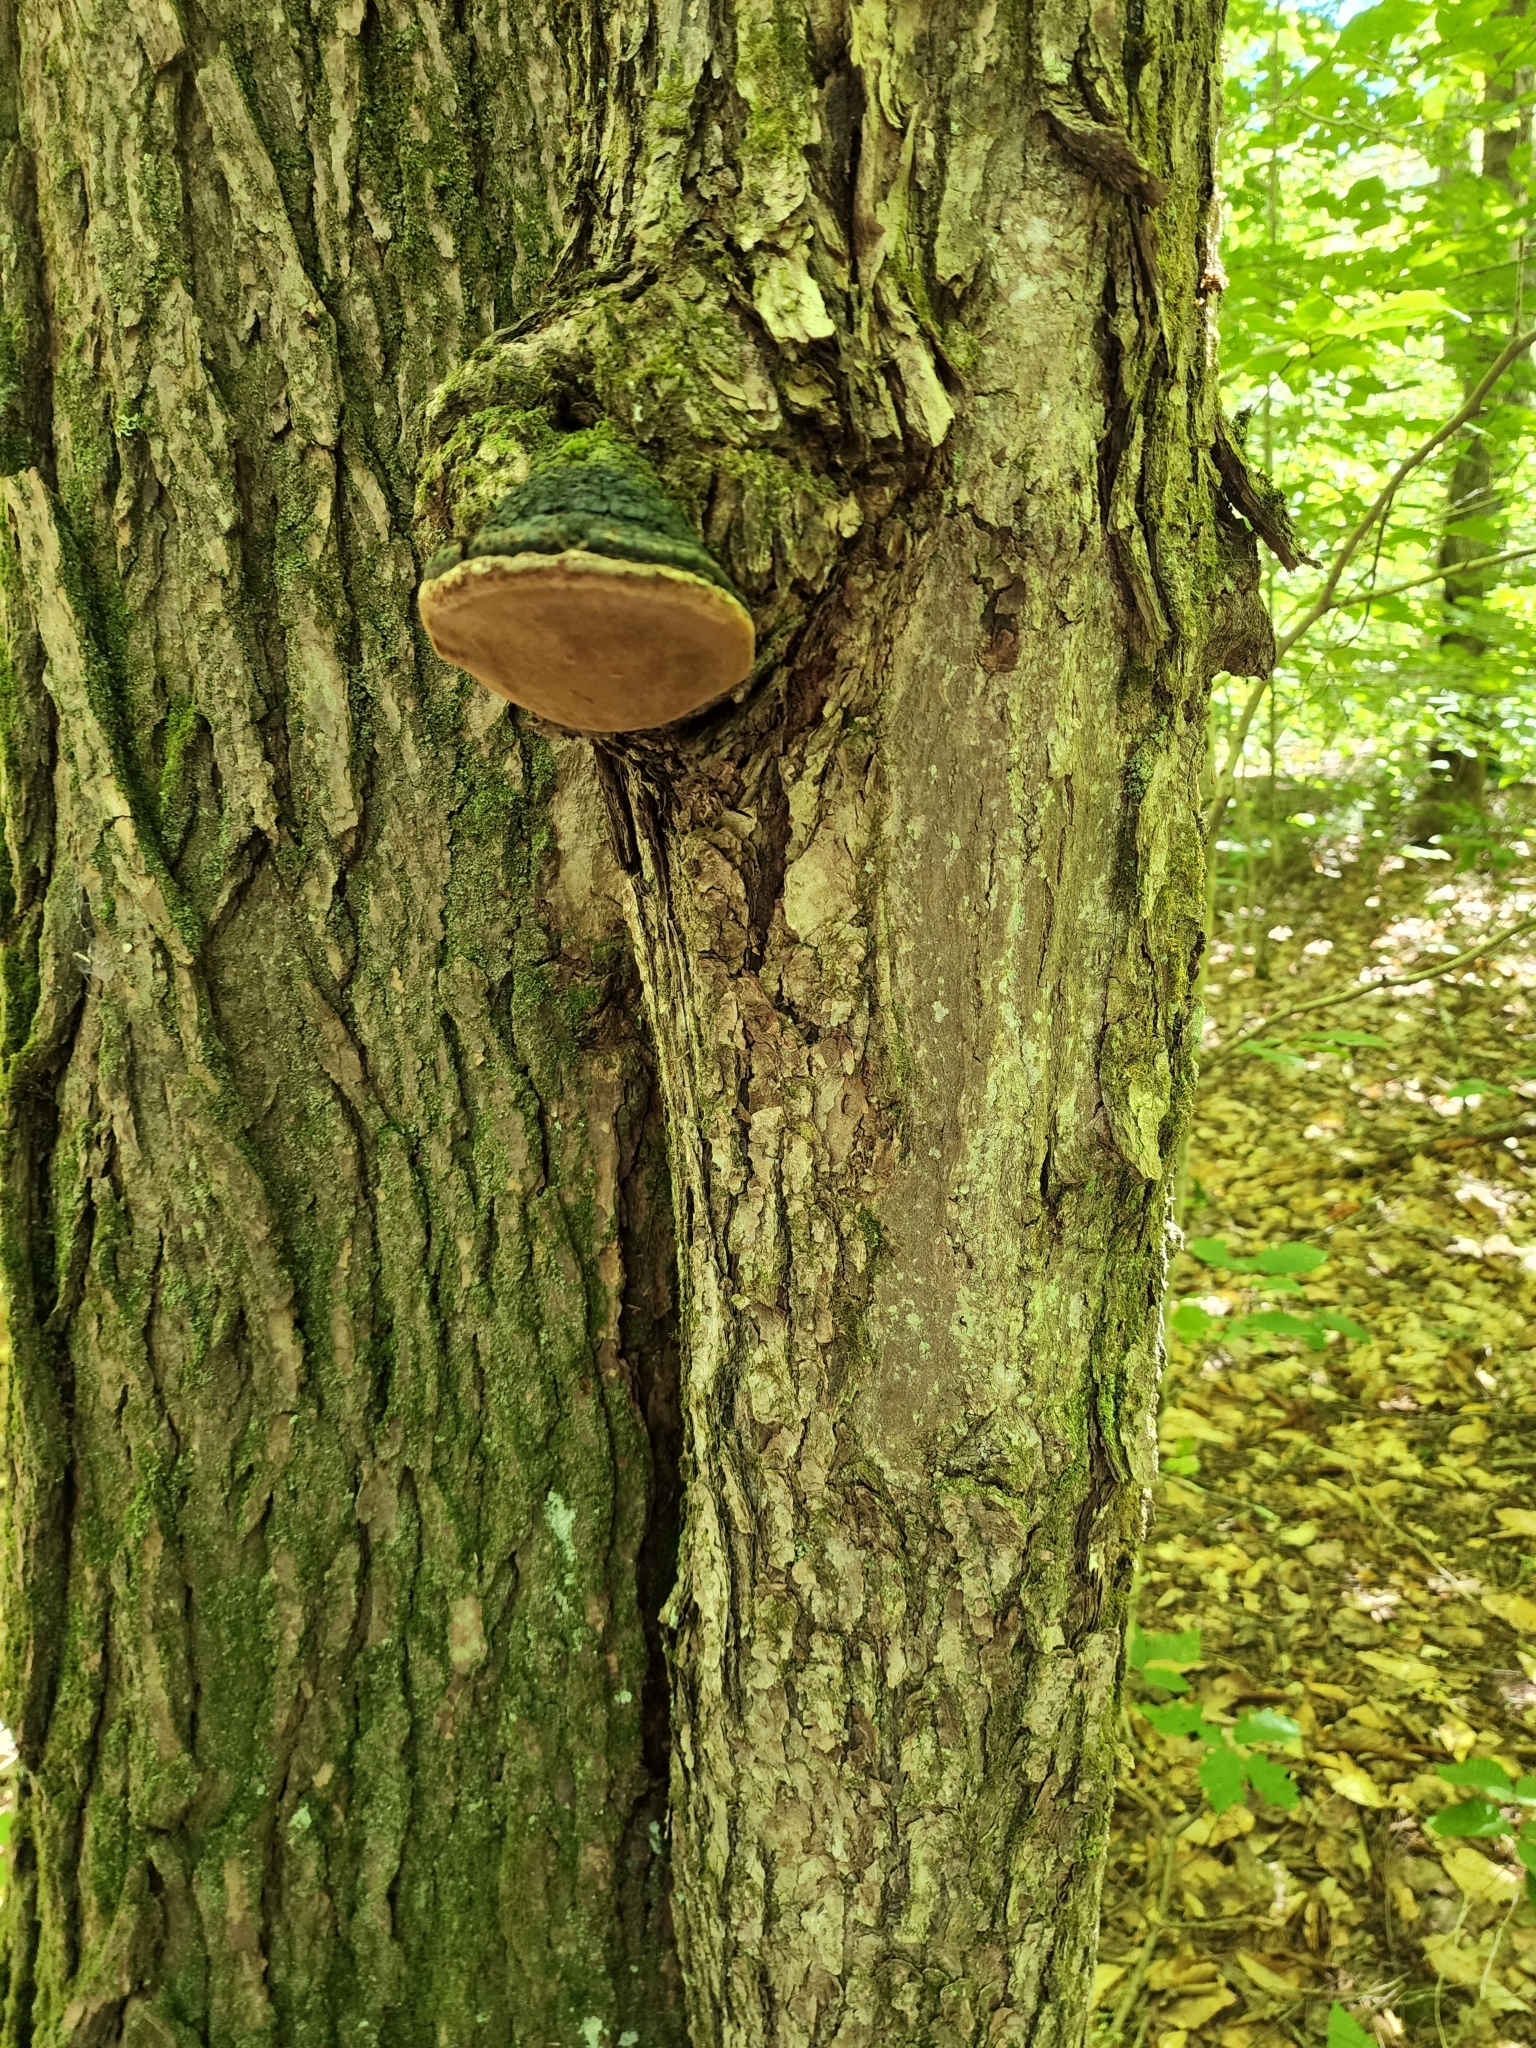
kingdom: Fungi
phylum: Basidiomycota
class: Agaricomycetes
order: Hymenochaetales
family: Hymenochaetaceae
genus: Phellinus
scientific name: Phellinus robiniae
